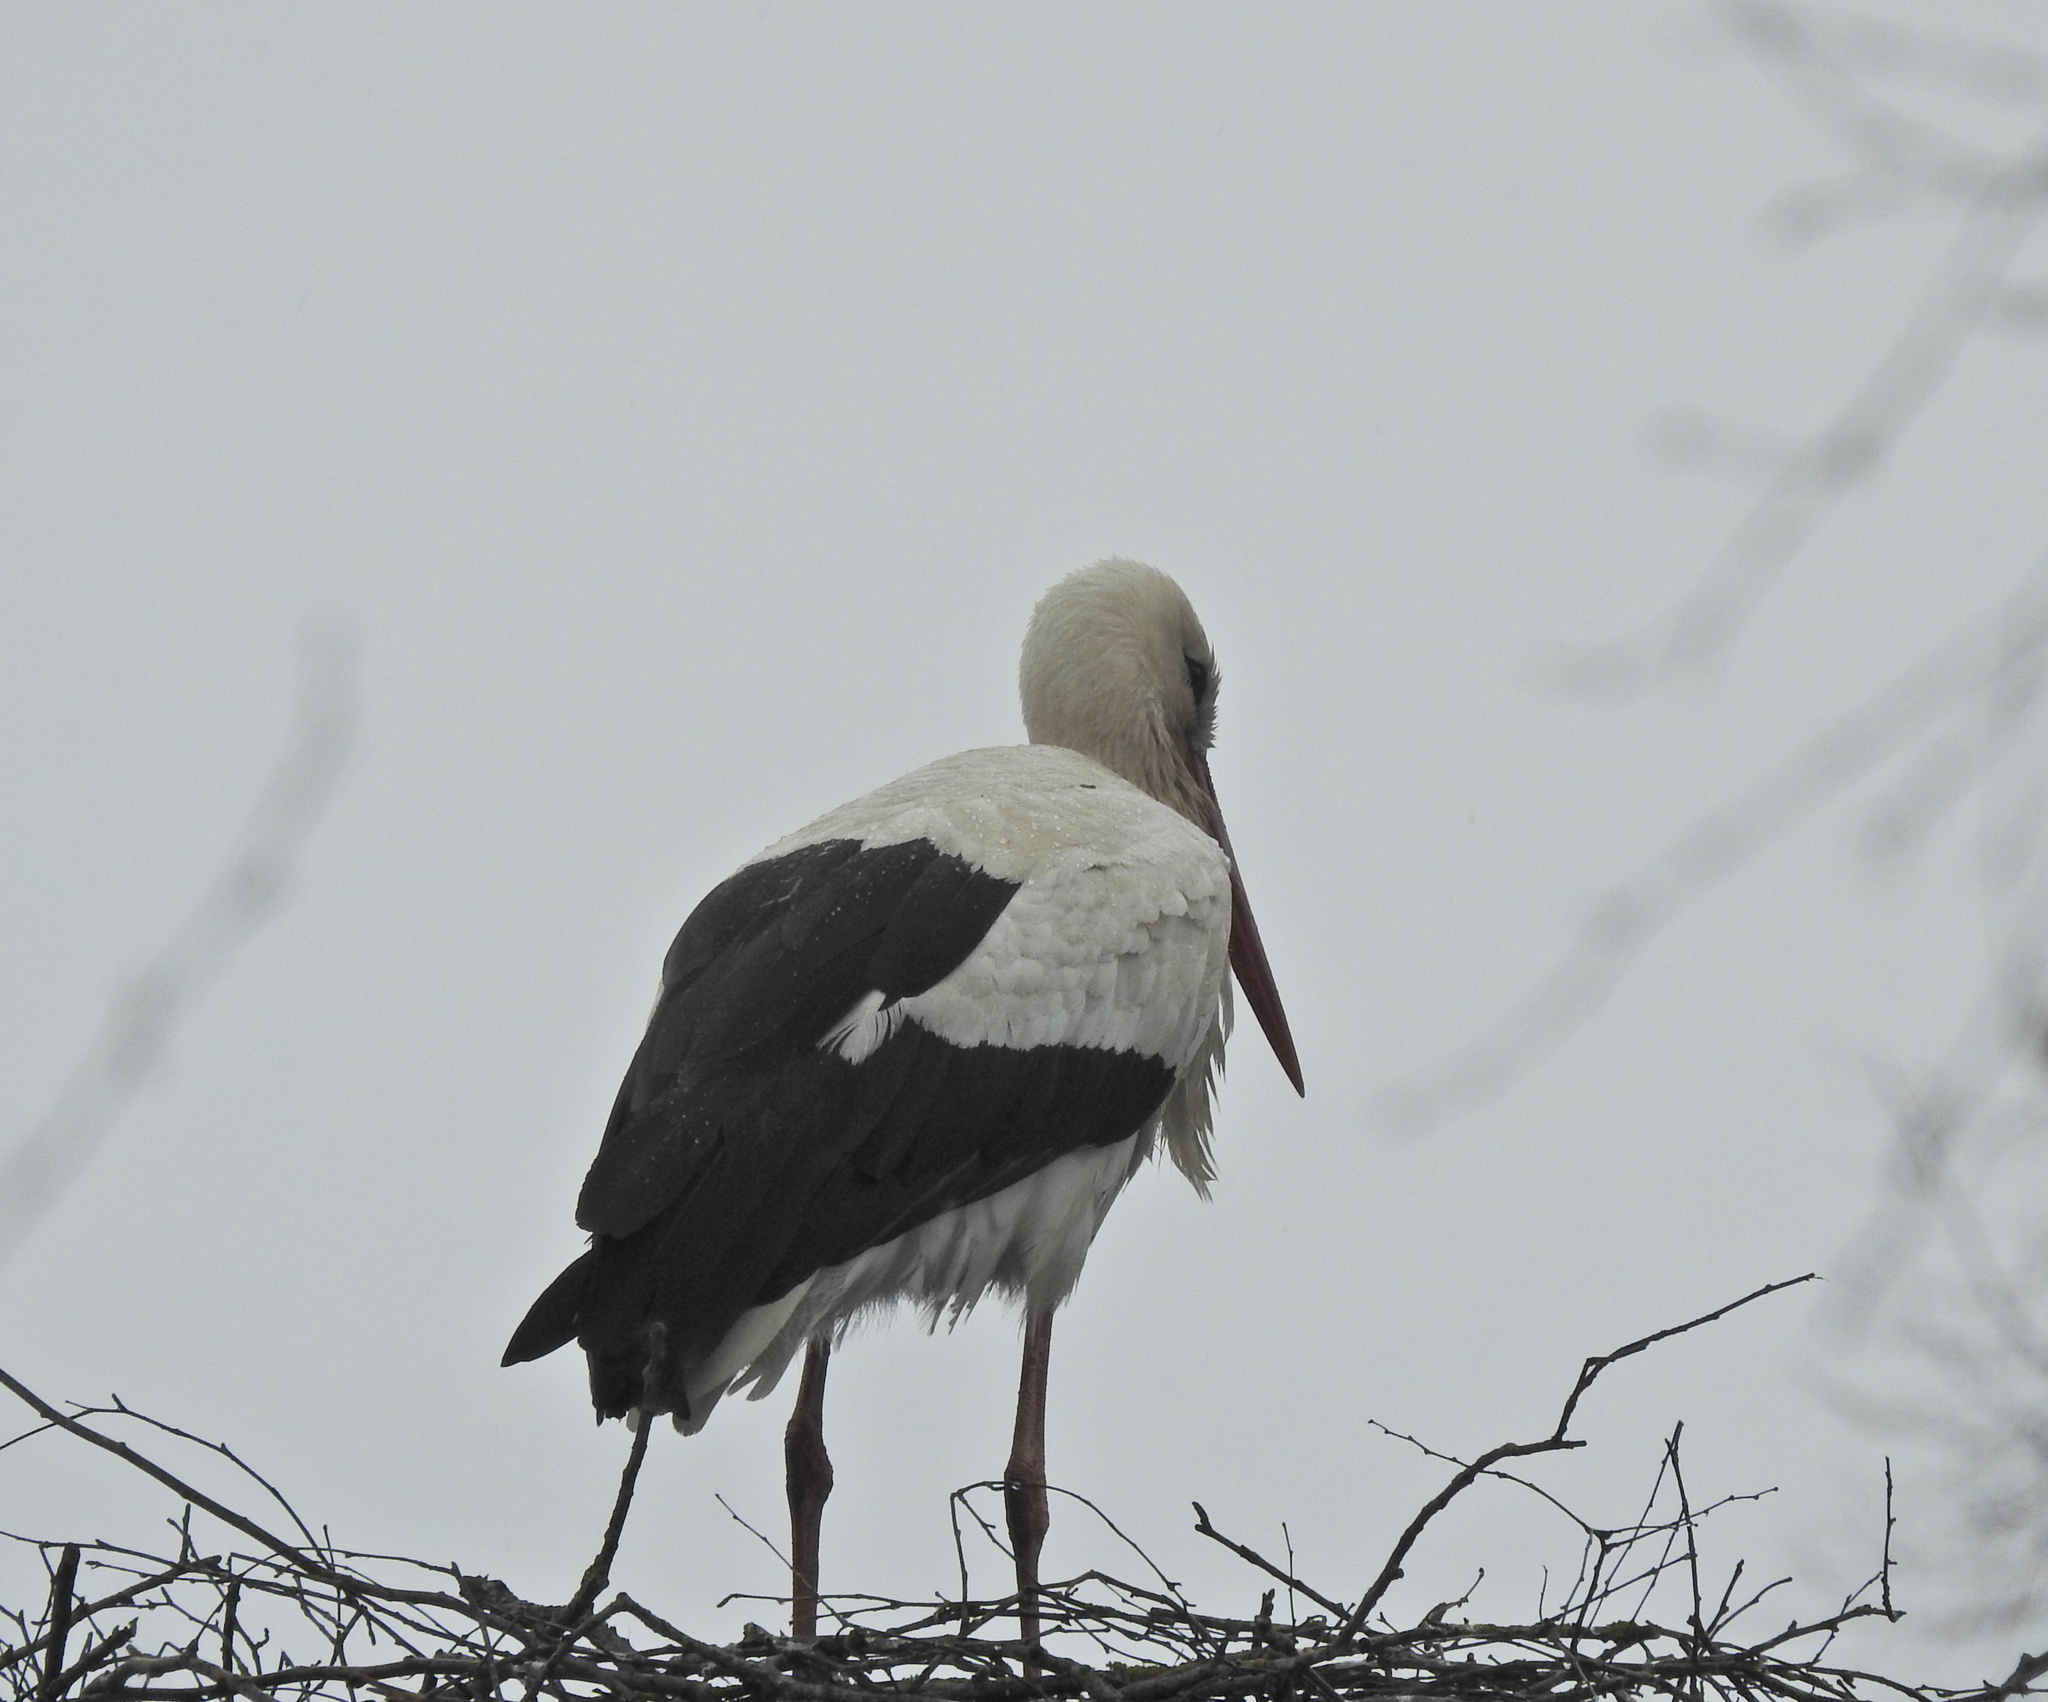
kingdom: Animalia
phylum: Chordata
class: Aves
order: Ciconiiformes
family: Ciconiidae
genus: Ciconia
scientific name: Ciconia ciconia
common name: White stork
